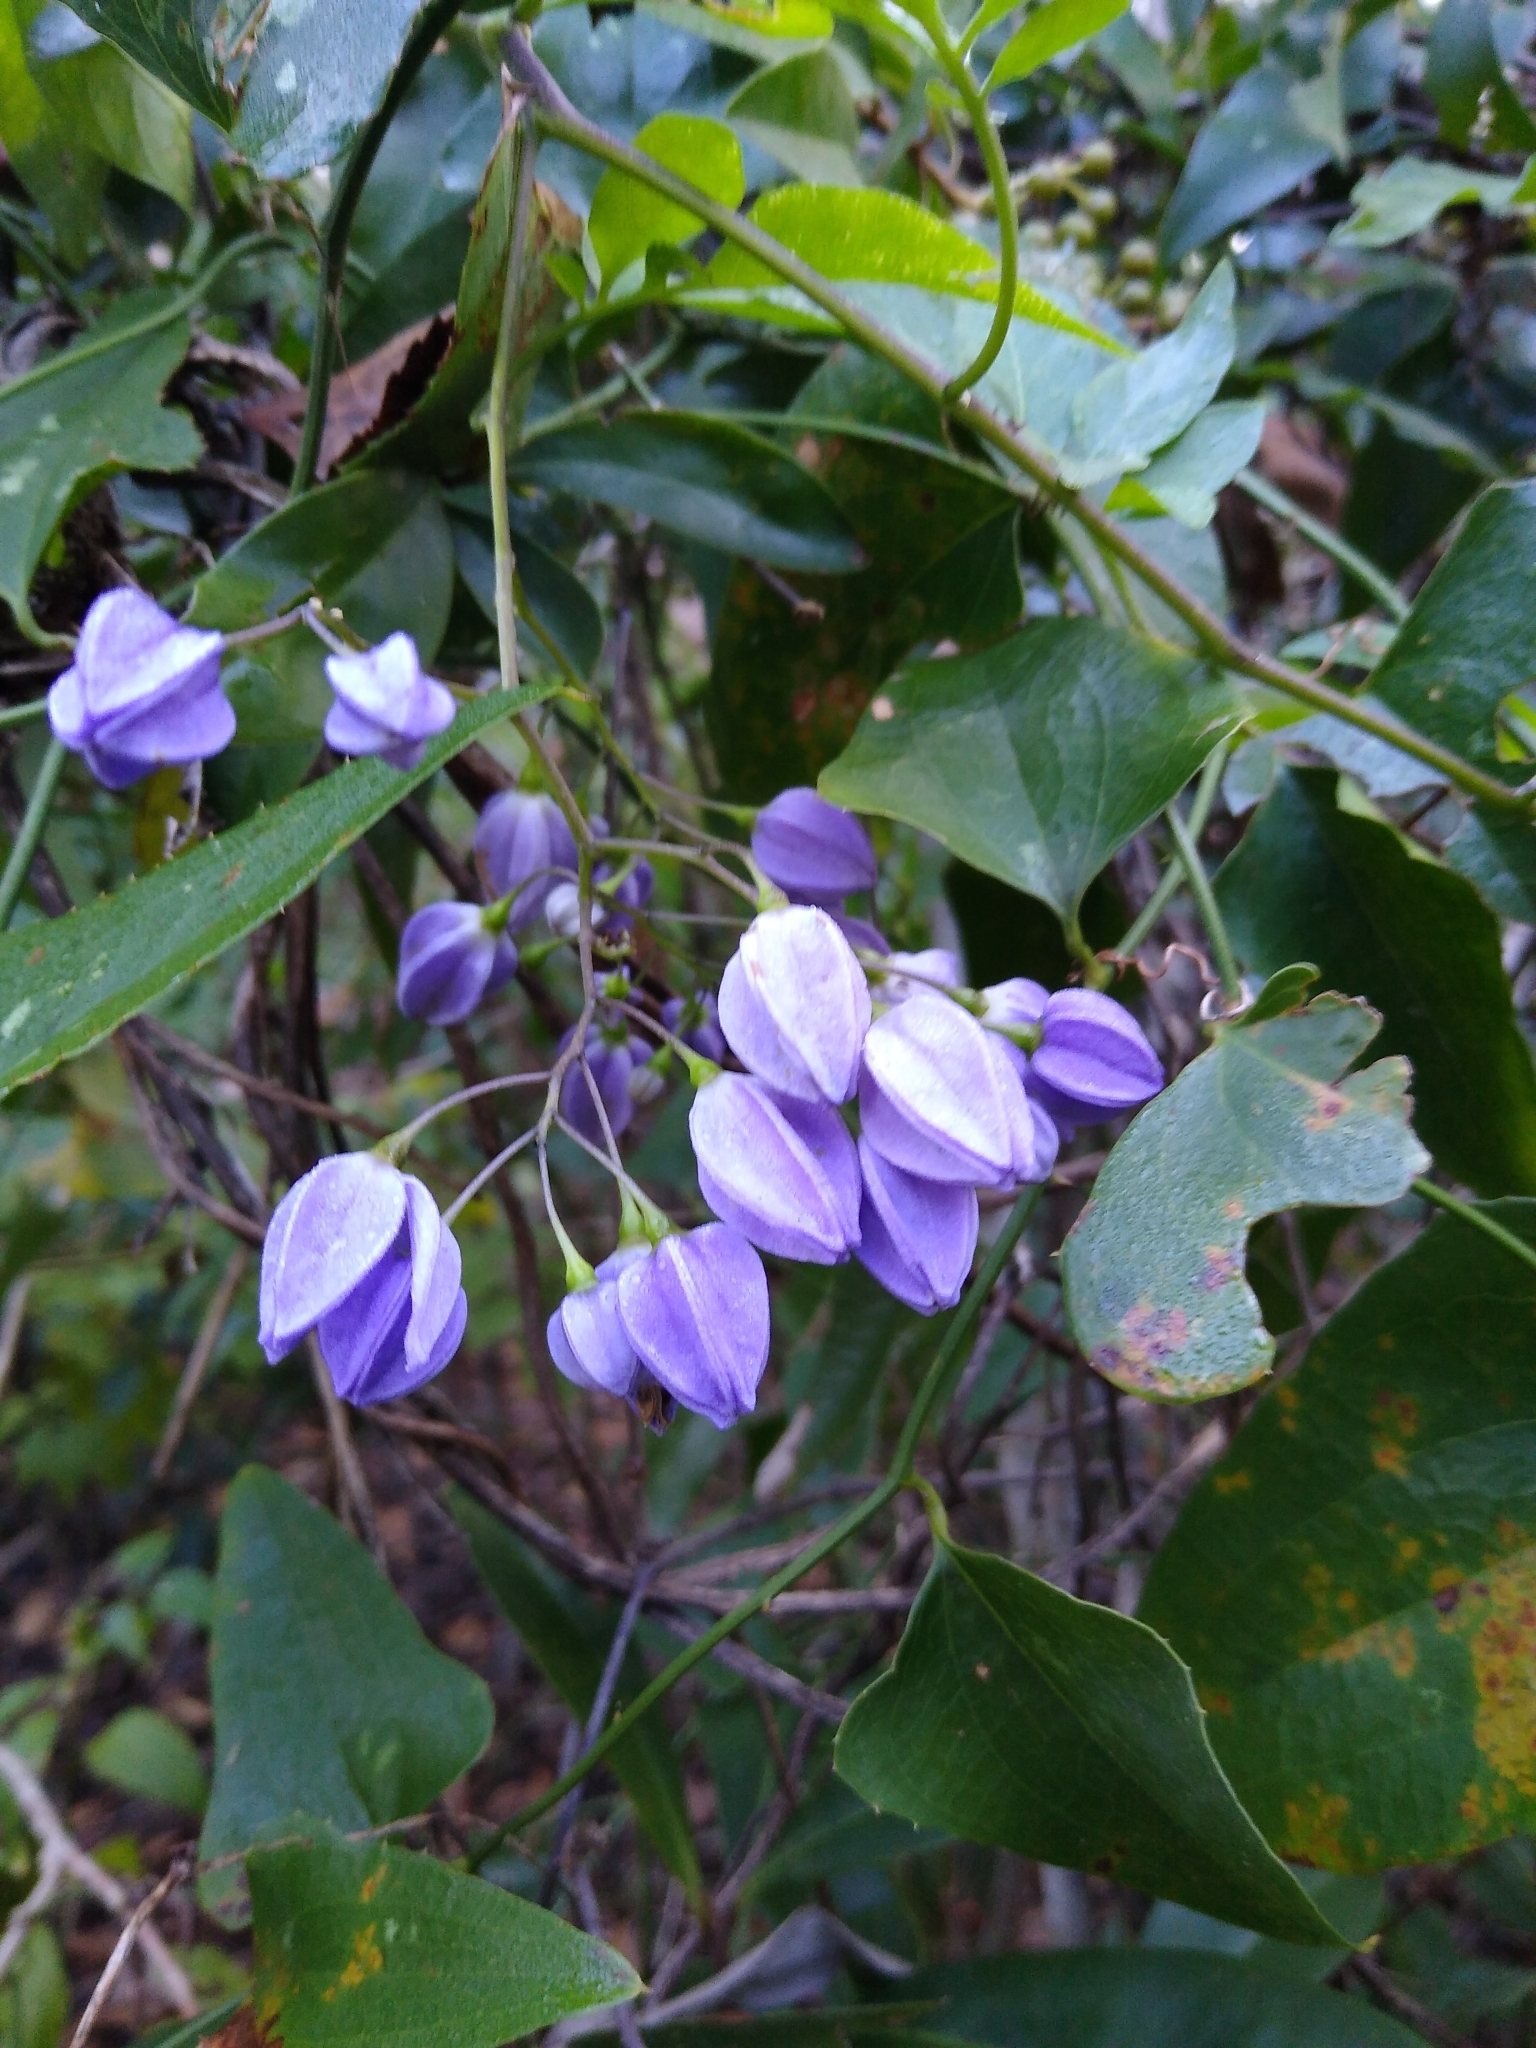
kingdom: Plantae
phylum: Tracheophyta
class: Magnoliopsida
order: Solanales
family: Solanaceae
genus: Solanum
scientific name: Solanum seaforthianum
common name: Brazilian nightshade
